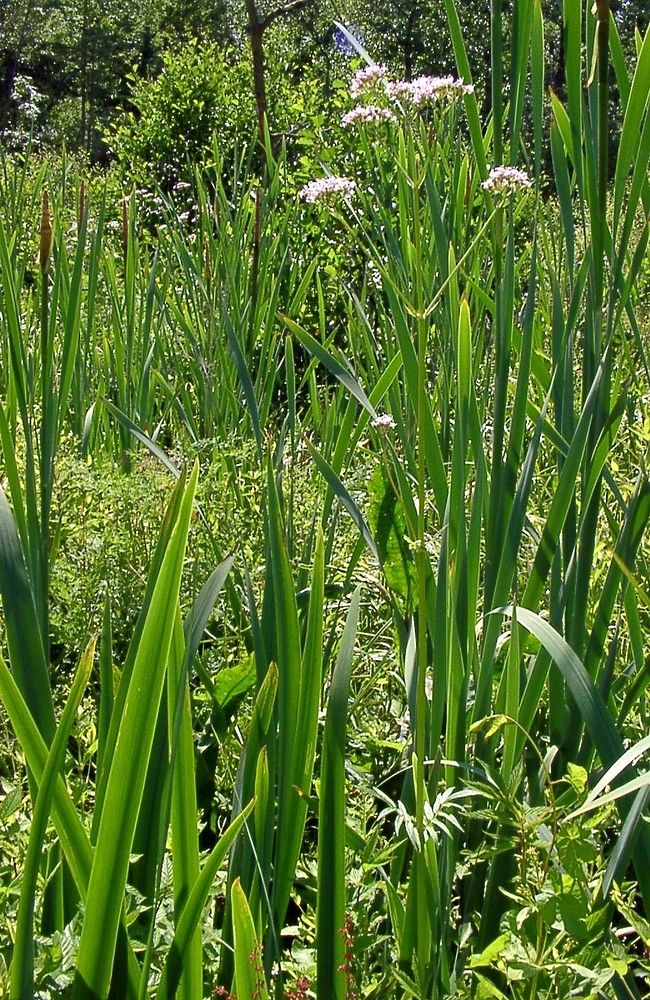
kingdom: Plantae
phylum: Tracheophyta
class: Magnoliopsida
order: Dipsacales
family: Caprifoliaceae
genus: Valeriana
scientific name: Valeriana officinalis
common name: Common valerian
